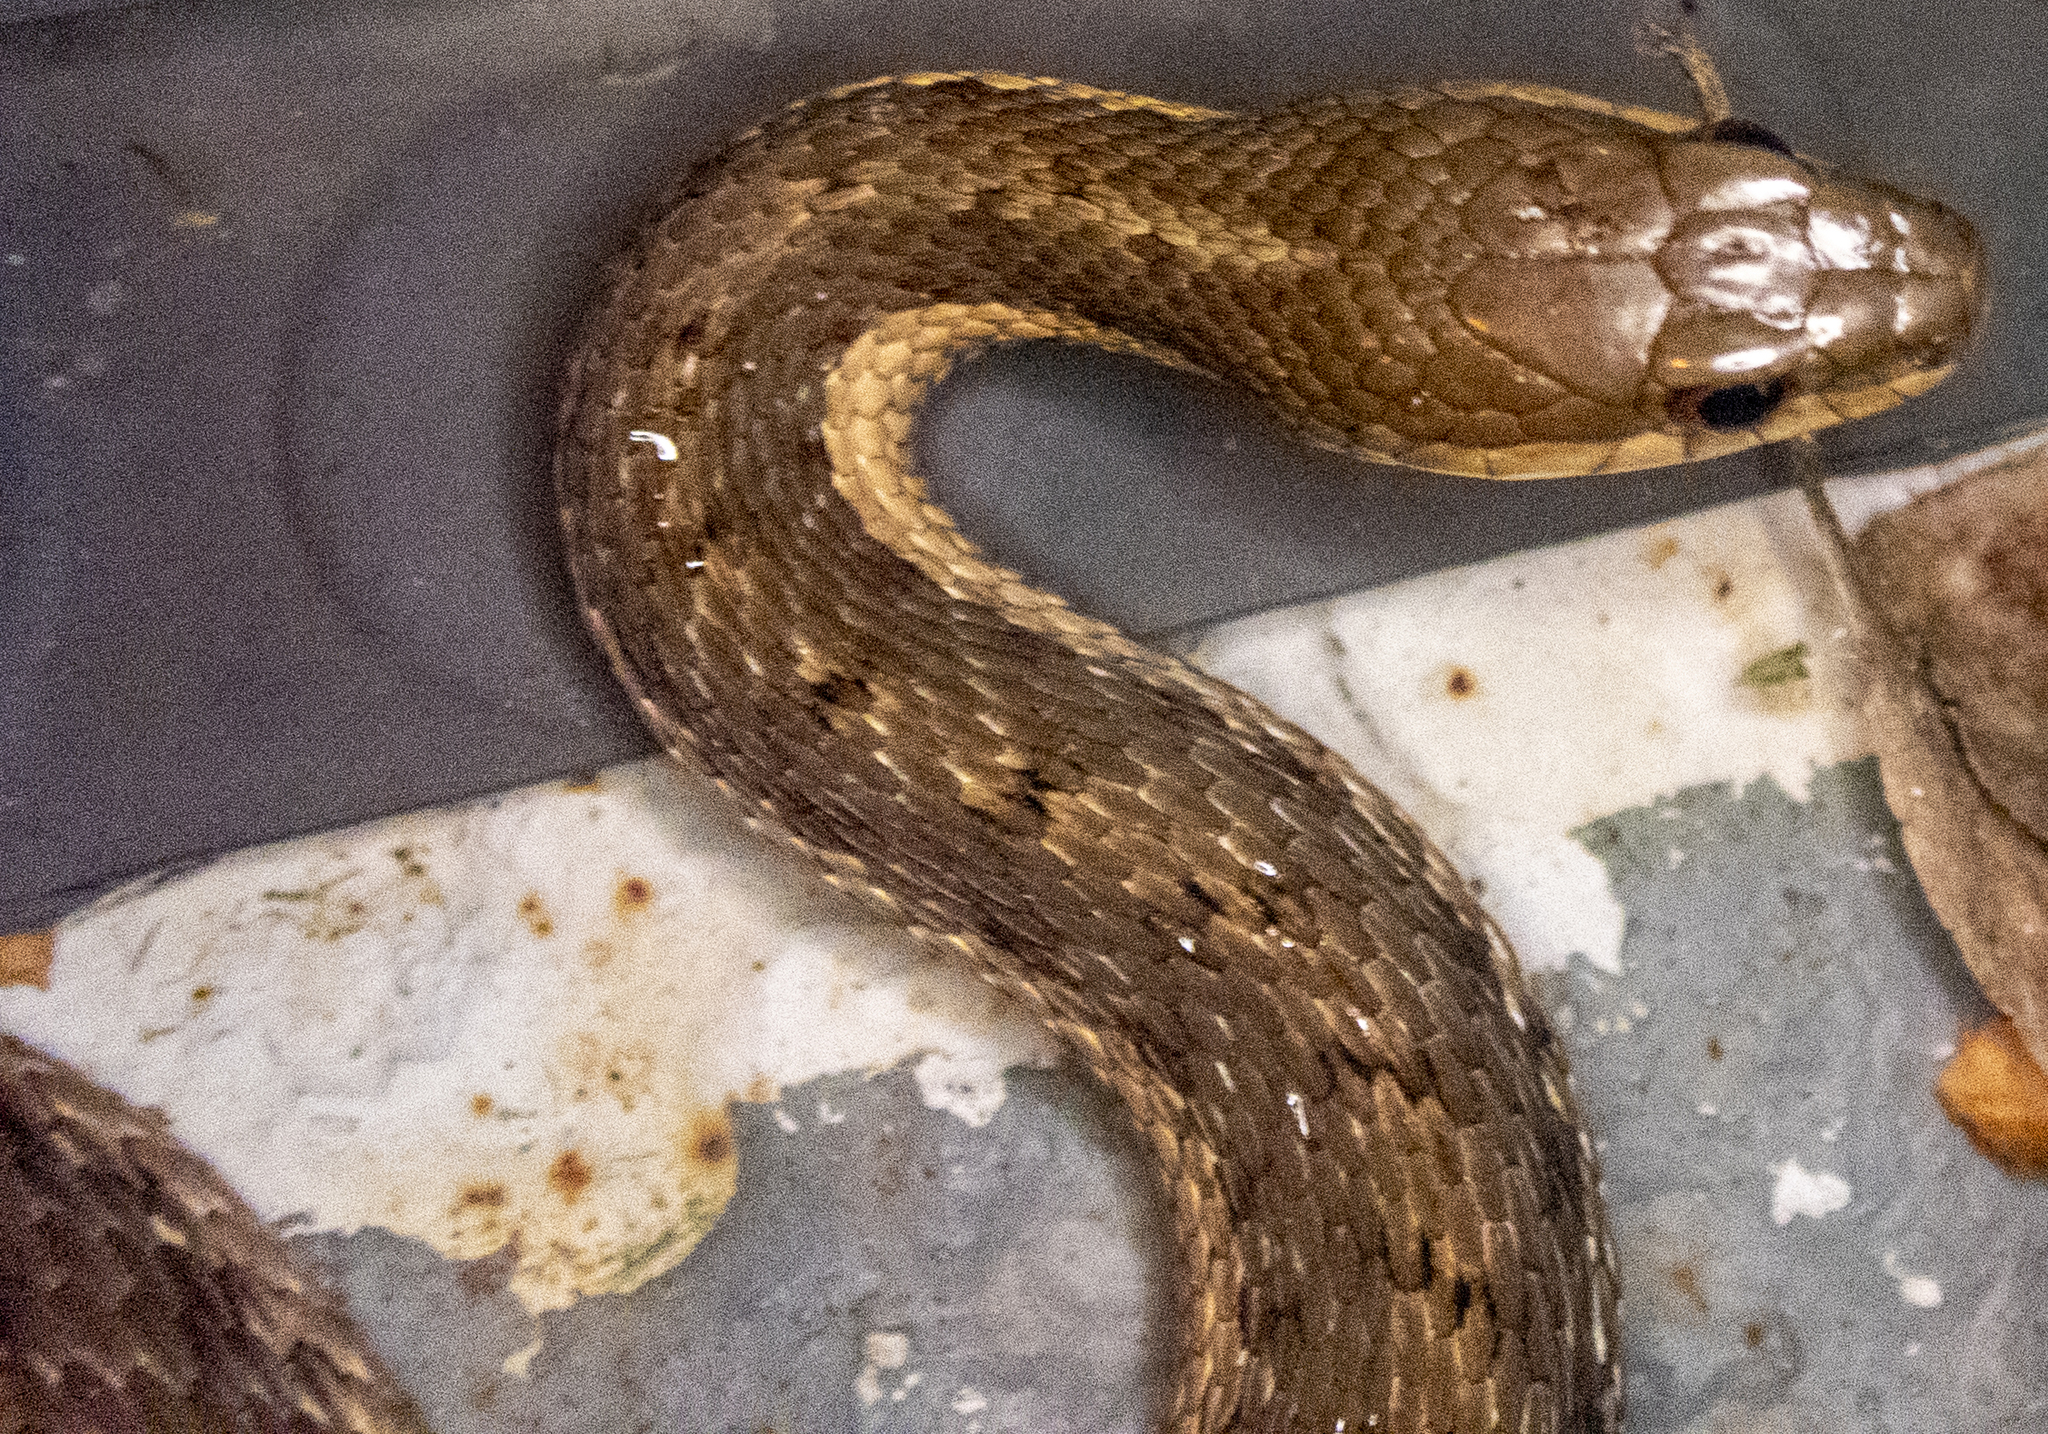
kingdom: Animalia
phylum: Chordata
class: Squamata
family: Colubridae
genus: Thamnophis
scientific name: Thamnophis sirtalis
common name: Common garter snake
